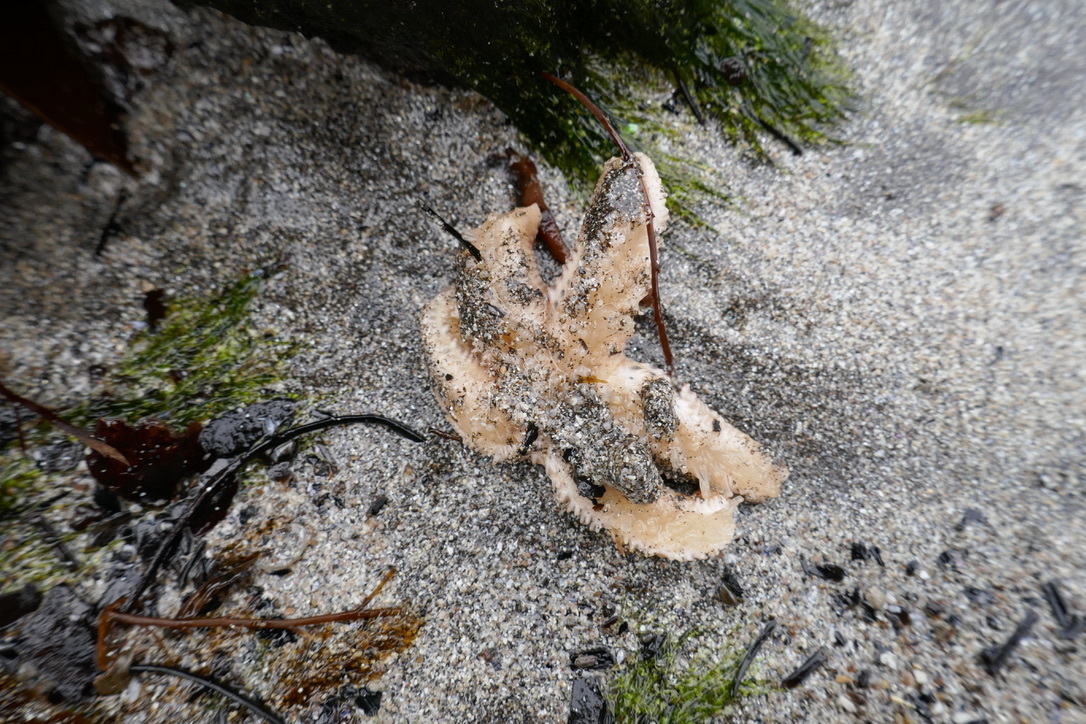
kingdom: Animalia
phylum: Echinodermata
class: Asteroidea
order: Forcipulatida
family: Asteriidae
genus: Asterias
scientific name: Asterias rubens
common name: Common starfish
